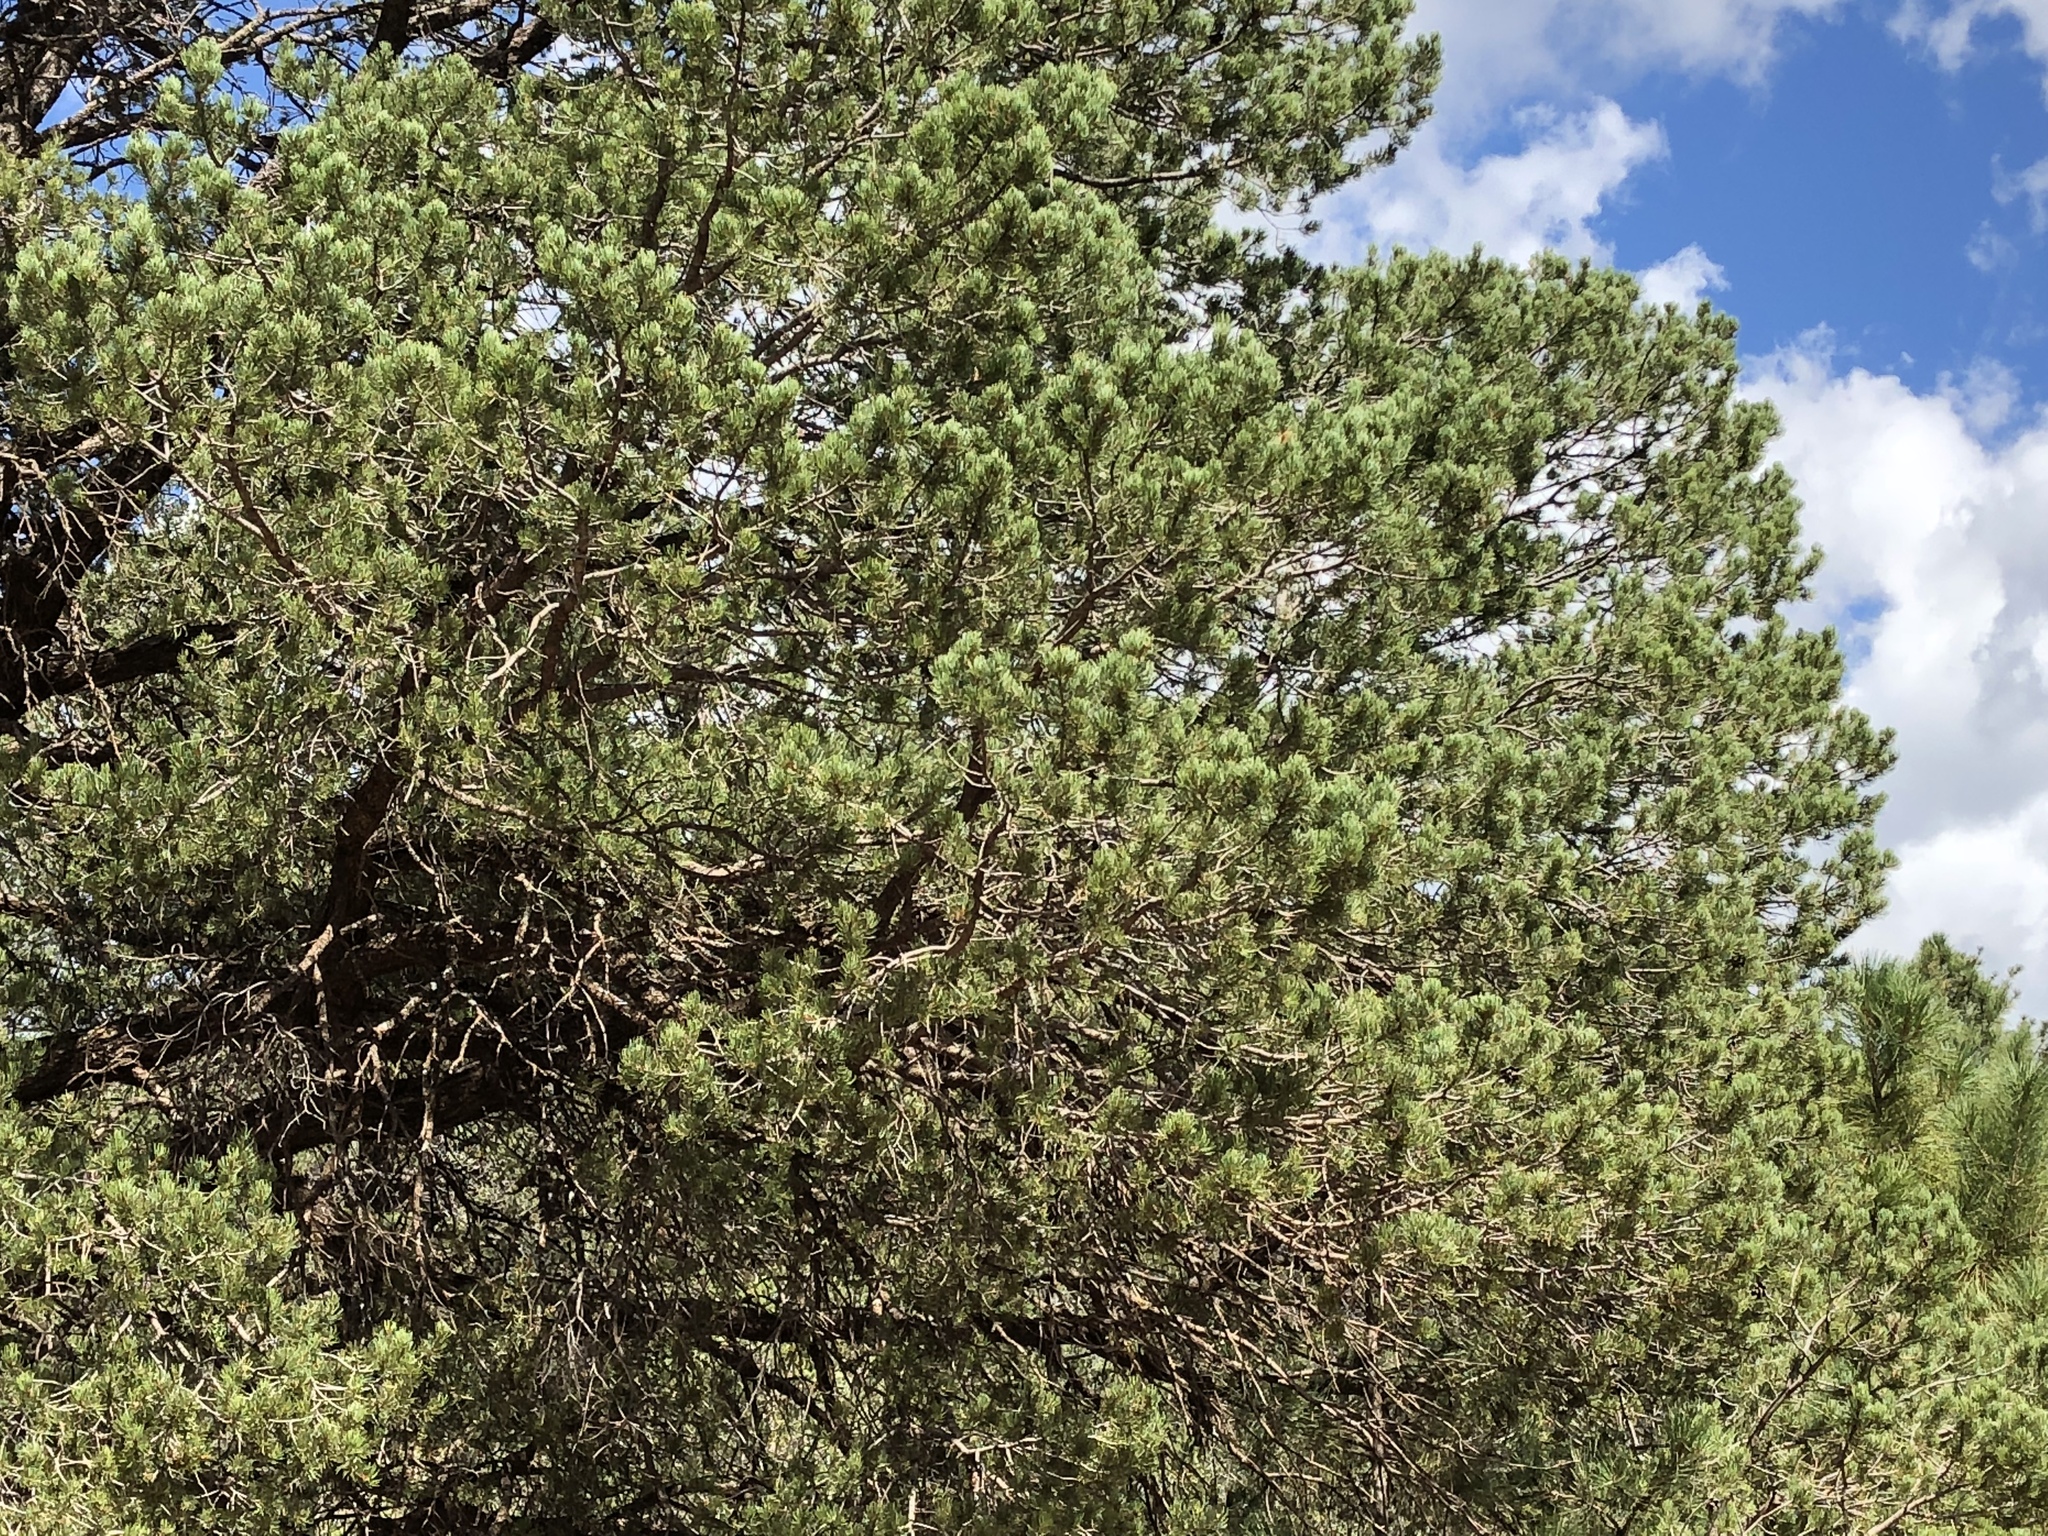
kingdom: Plantae
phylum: Tracheophyta
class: Pinopsida
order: Pinales
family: Pinaceae
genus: Pinus
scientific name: Pinus edulis
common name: Colorado pinyon
